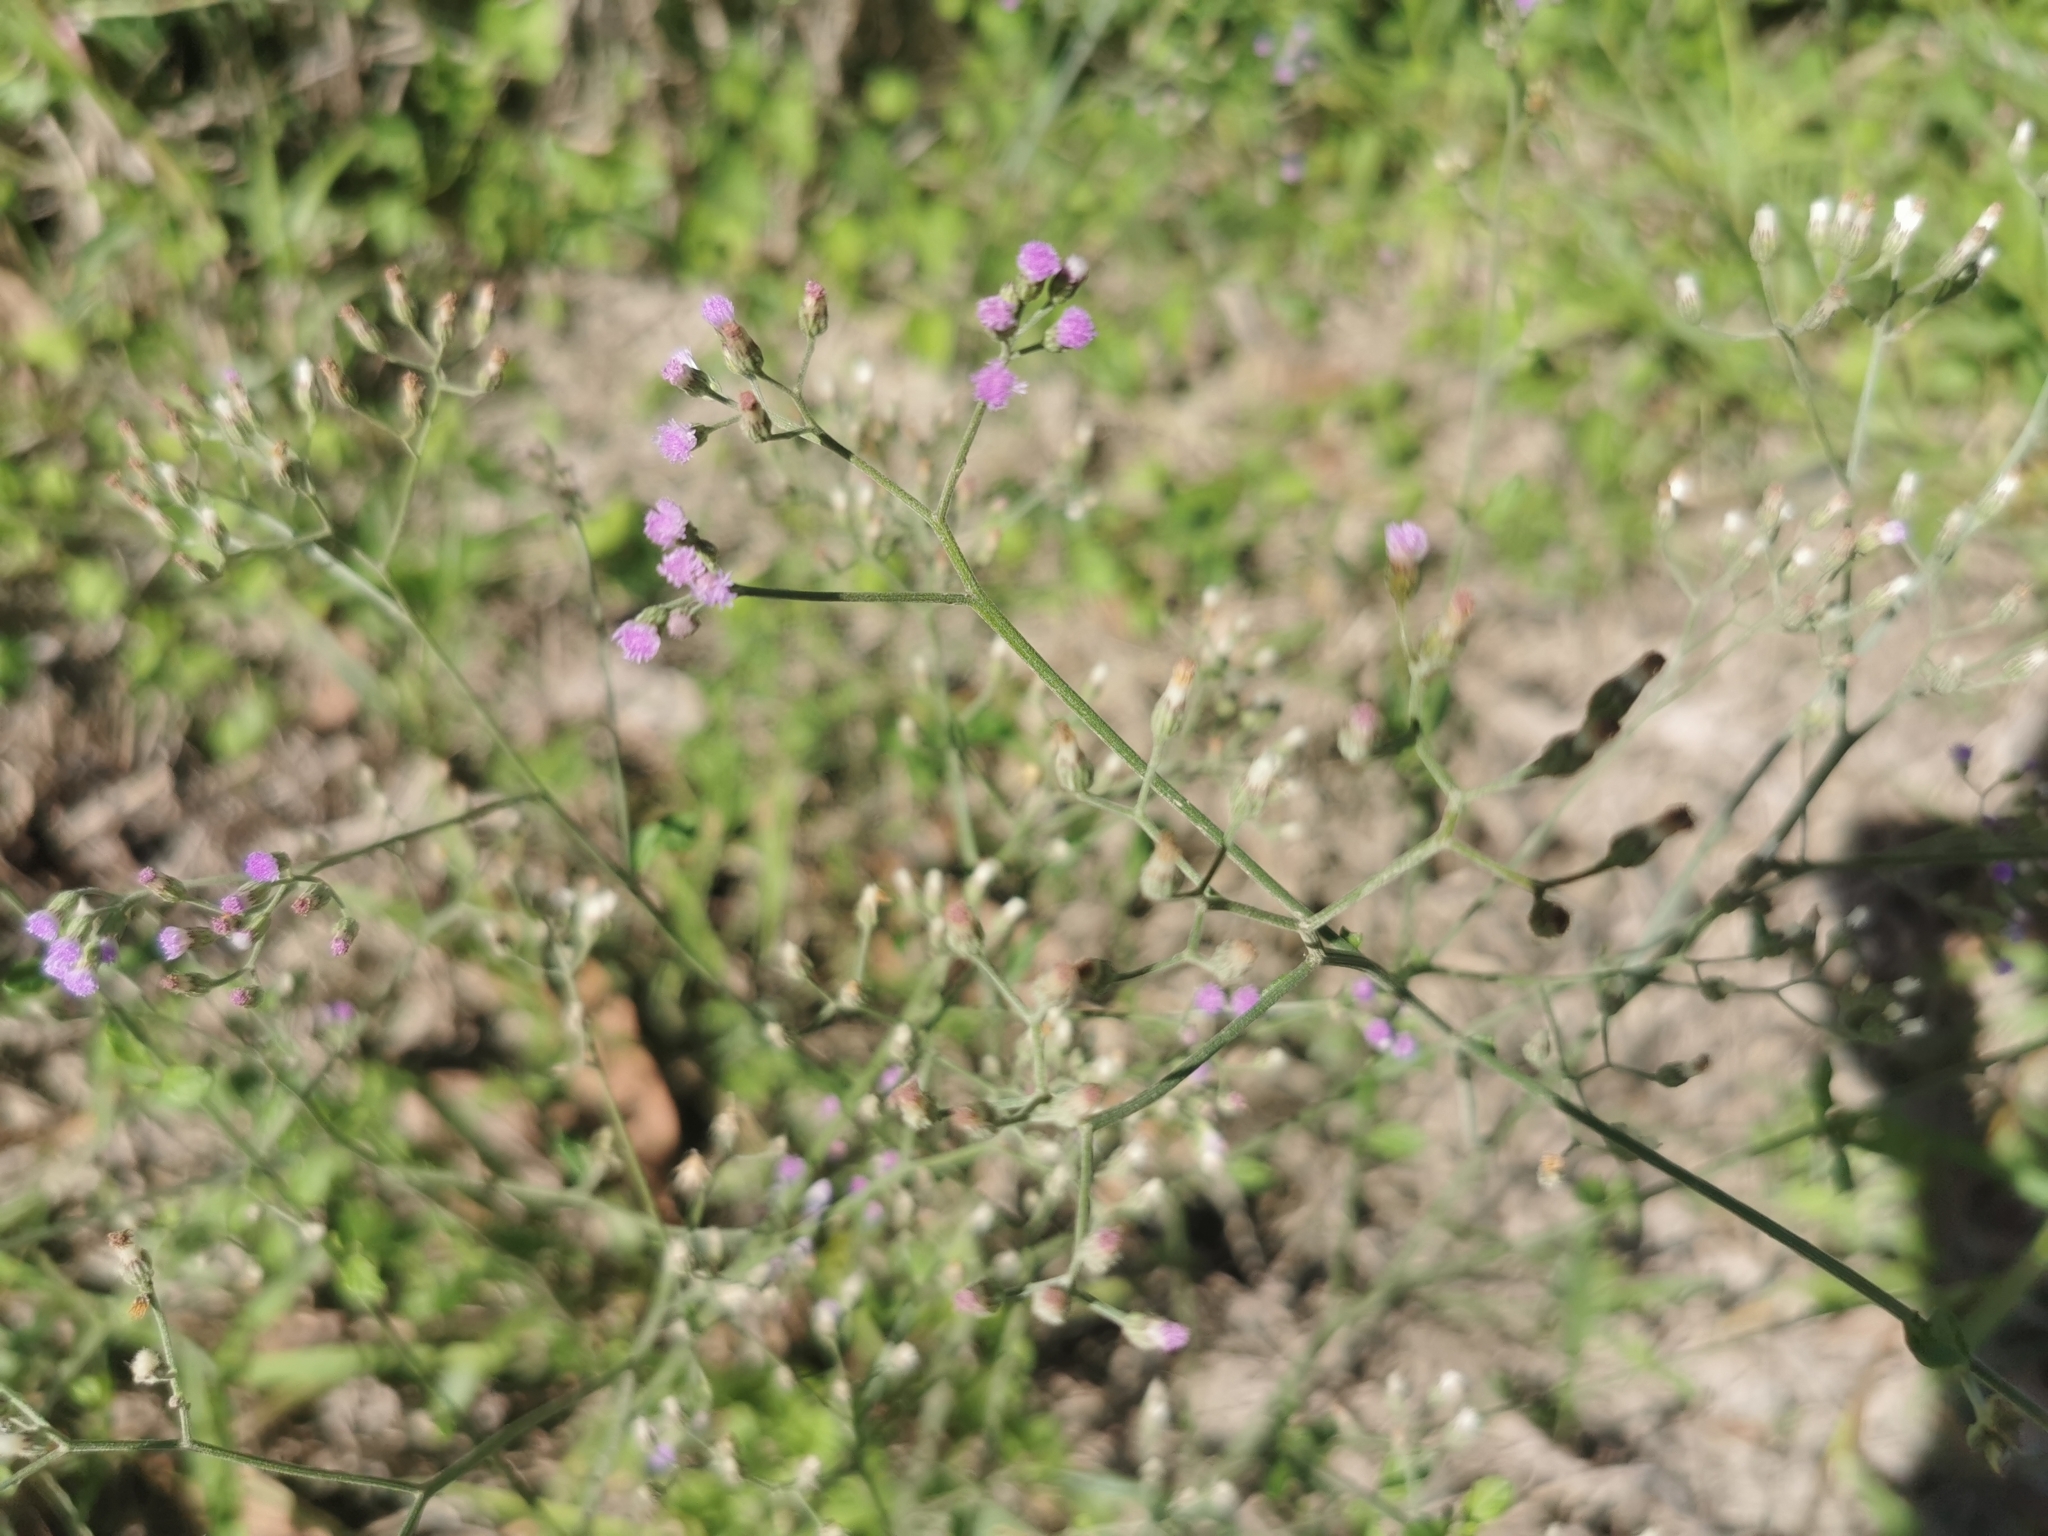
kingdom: Plantae
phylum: Tracheophyta
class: Magnoliopsida
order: Asterales
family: Asteraceae
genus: Cyanthillium
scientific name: Cyanthillium cinereum
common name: Little ironweed
